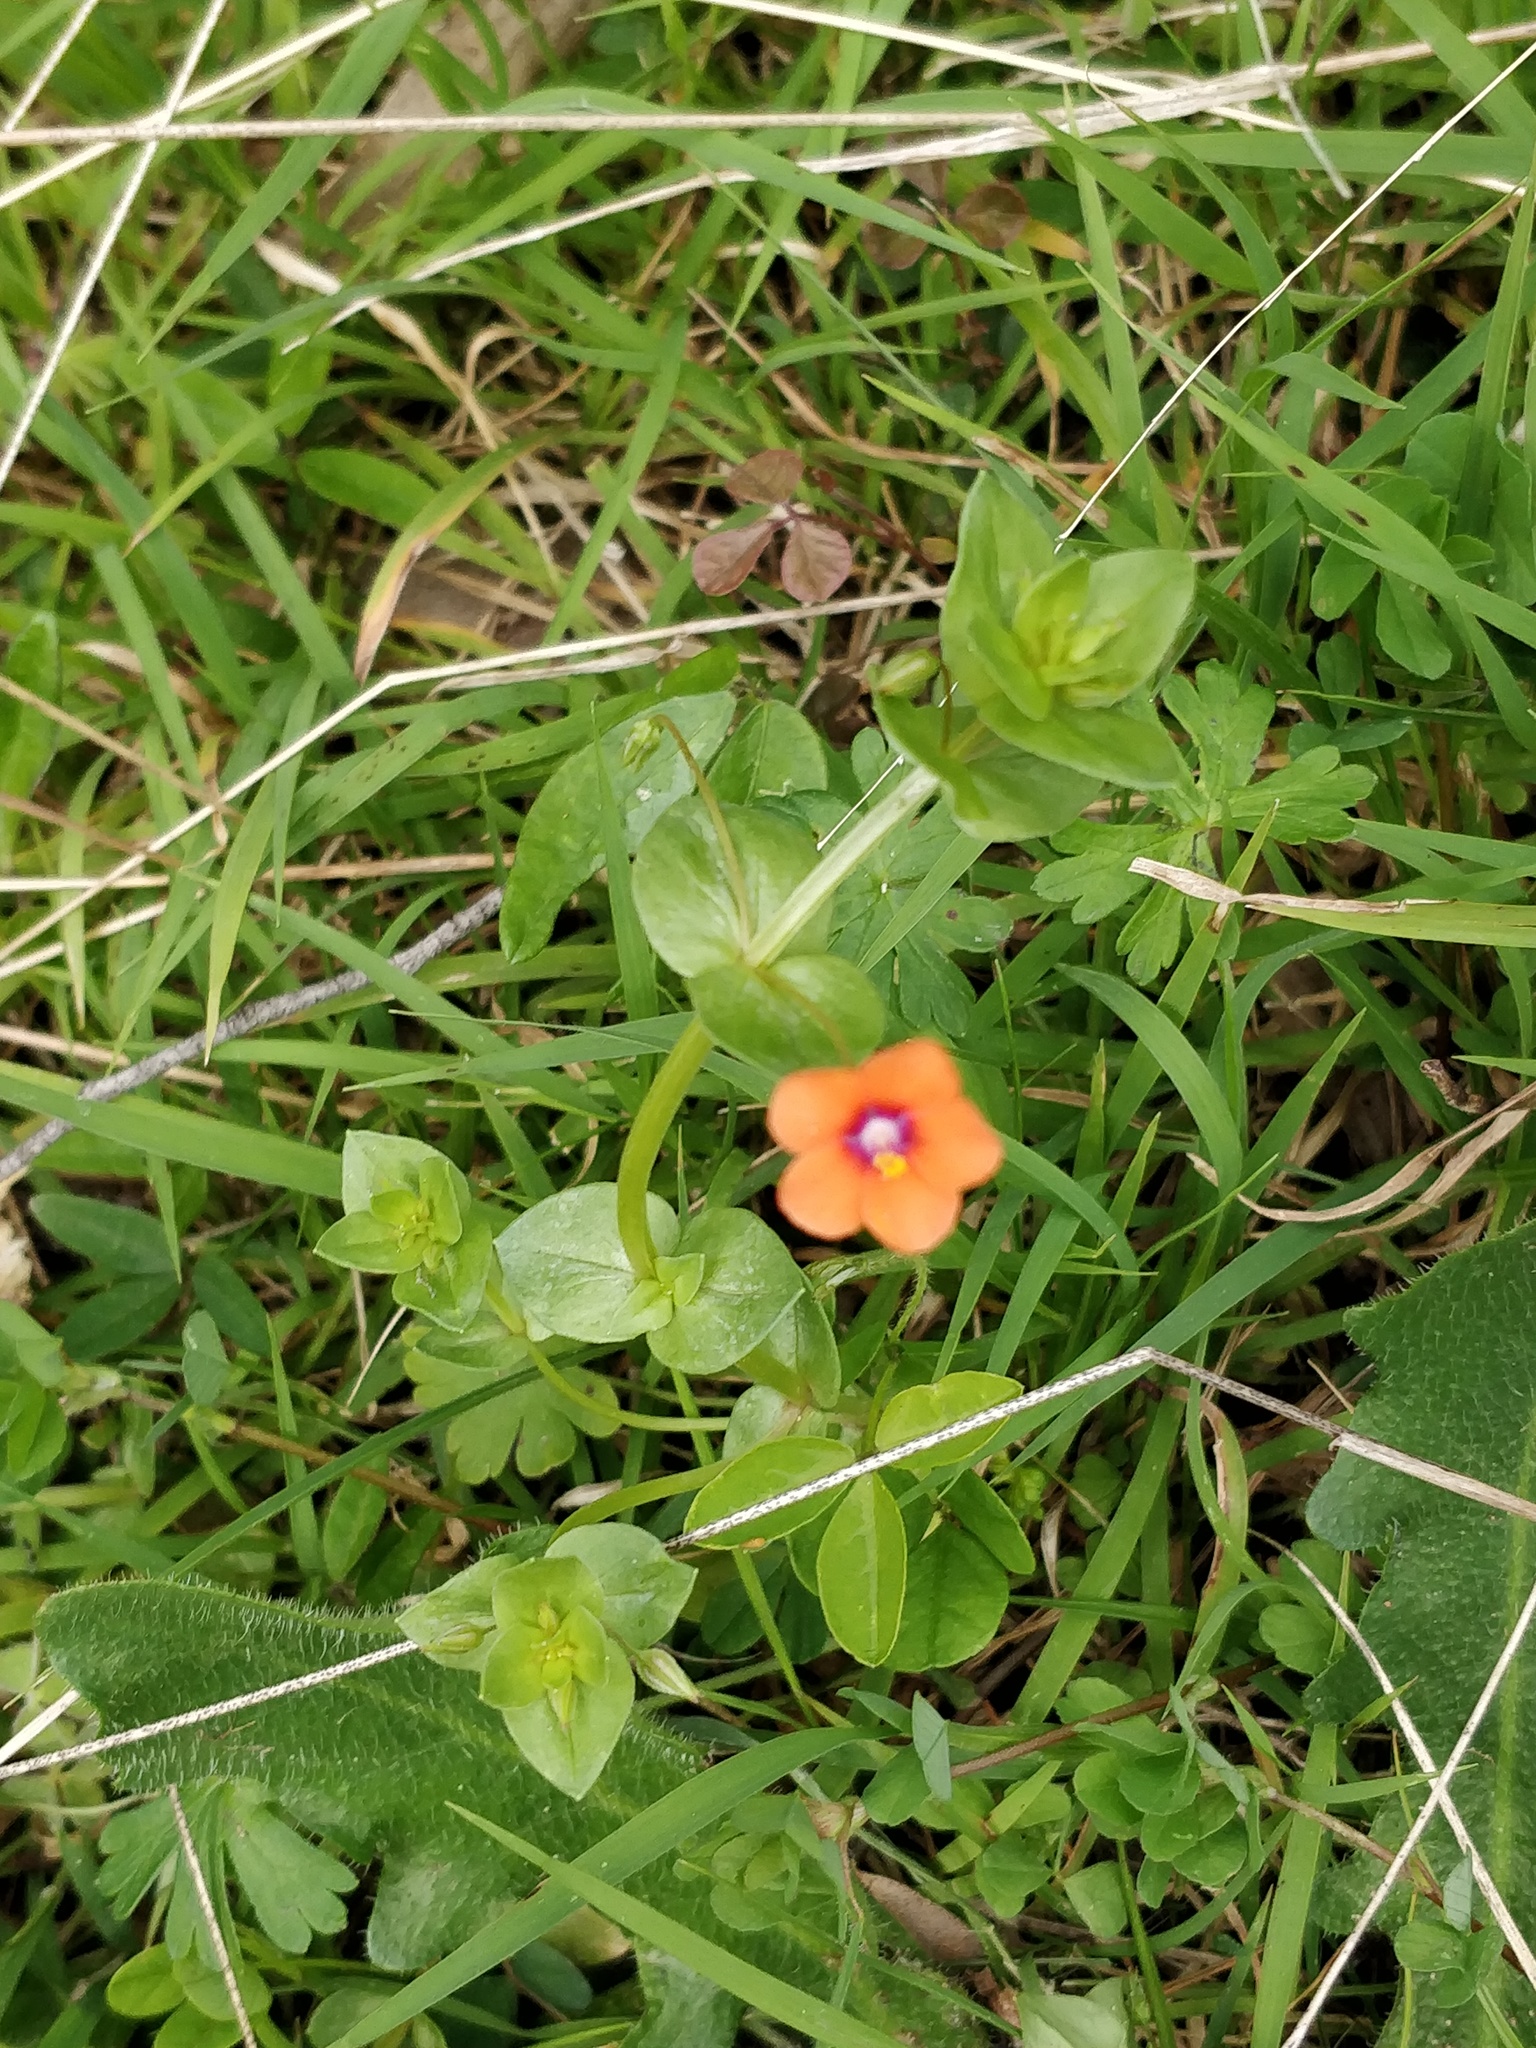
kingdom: Plantae
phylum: Tracheophyta
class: Magnoliopsida
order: Ericales
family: Primulaceae
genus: Lysimachia
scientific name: Lysimachia arvensis
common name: Scarlet pimpernel
